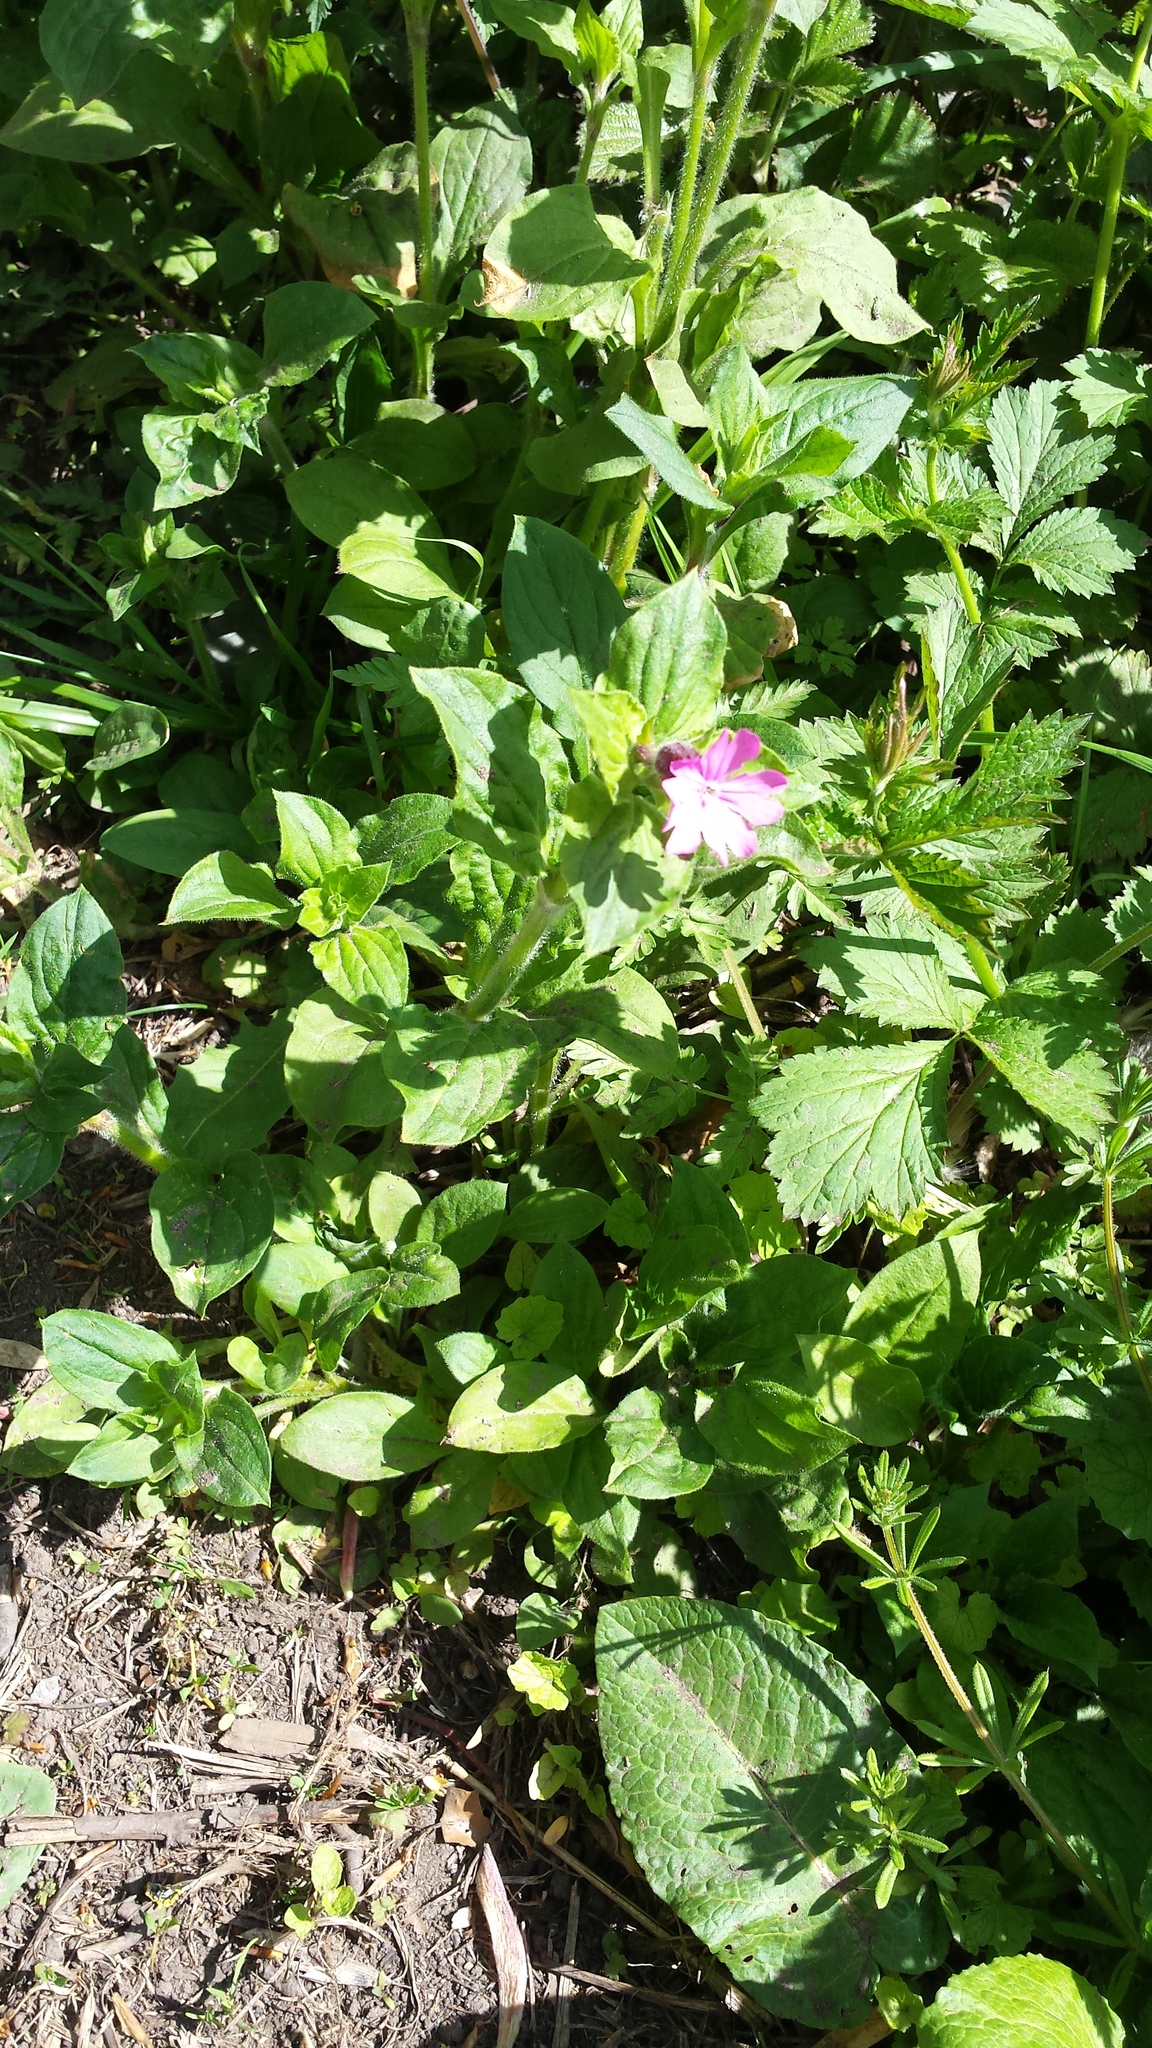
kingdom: Plantae
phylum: Tracheophyta
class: Magnoliopsida
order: Caryophyllales
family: Caryophyllaceae
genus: Silene
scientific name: Silene hampeana
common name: Catchfly
